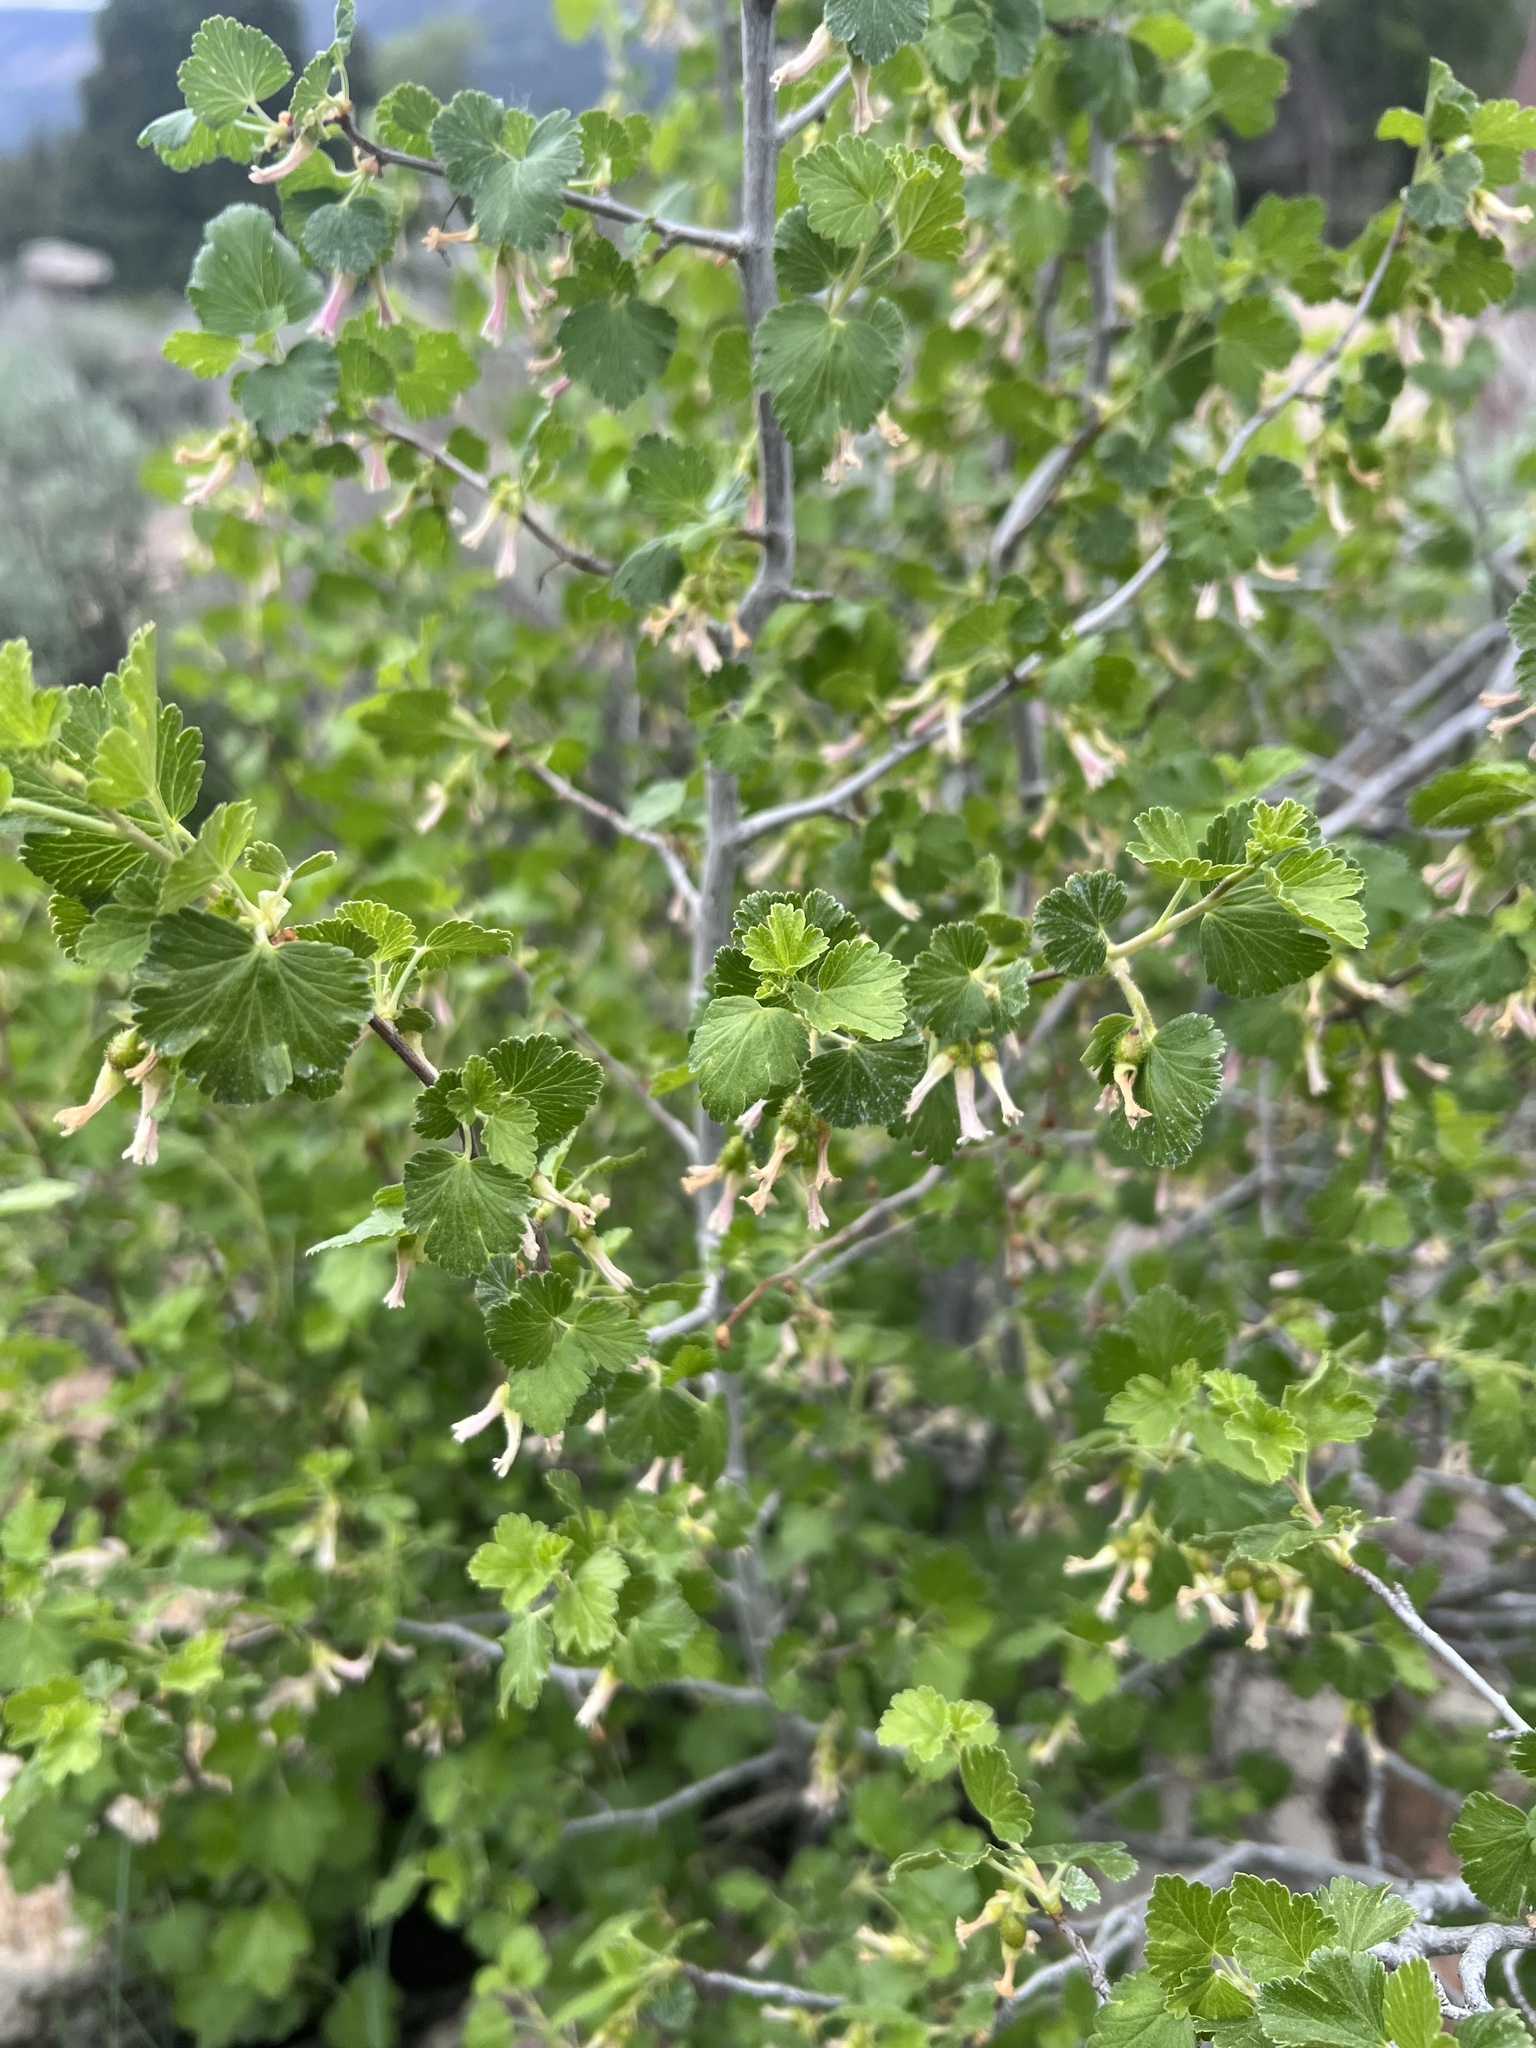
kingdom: Plantae
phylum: Tracheophyta
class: Magnoliopsida
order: Saxifragales
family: Grossulariaceae
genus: Ribes
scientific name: Ribes cereum
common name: Wax currant
